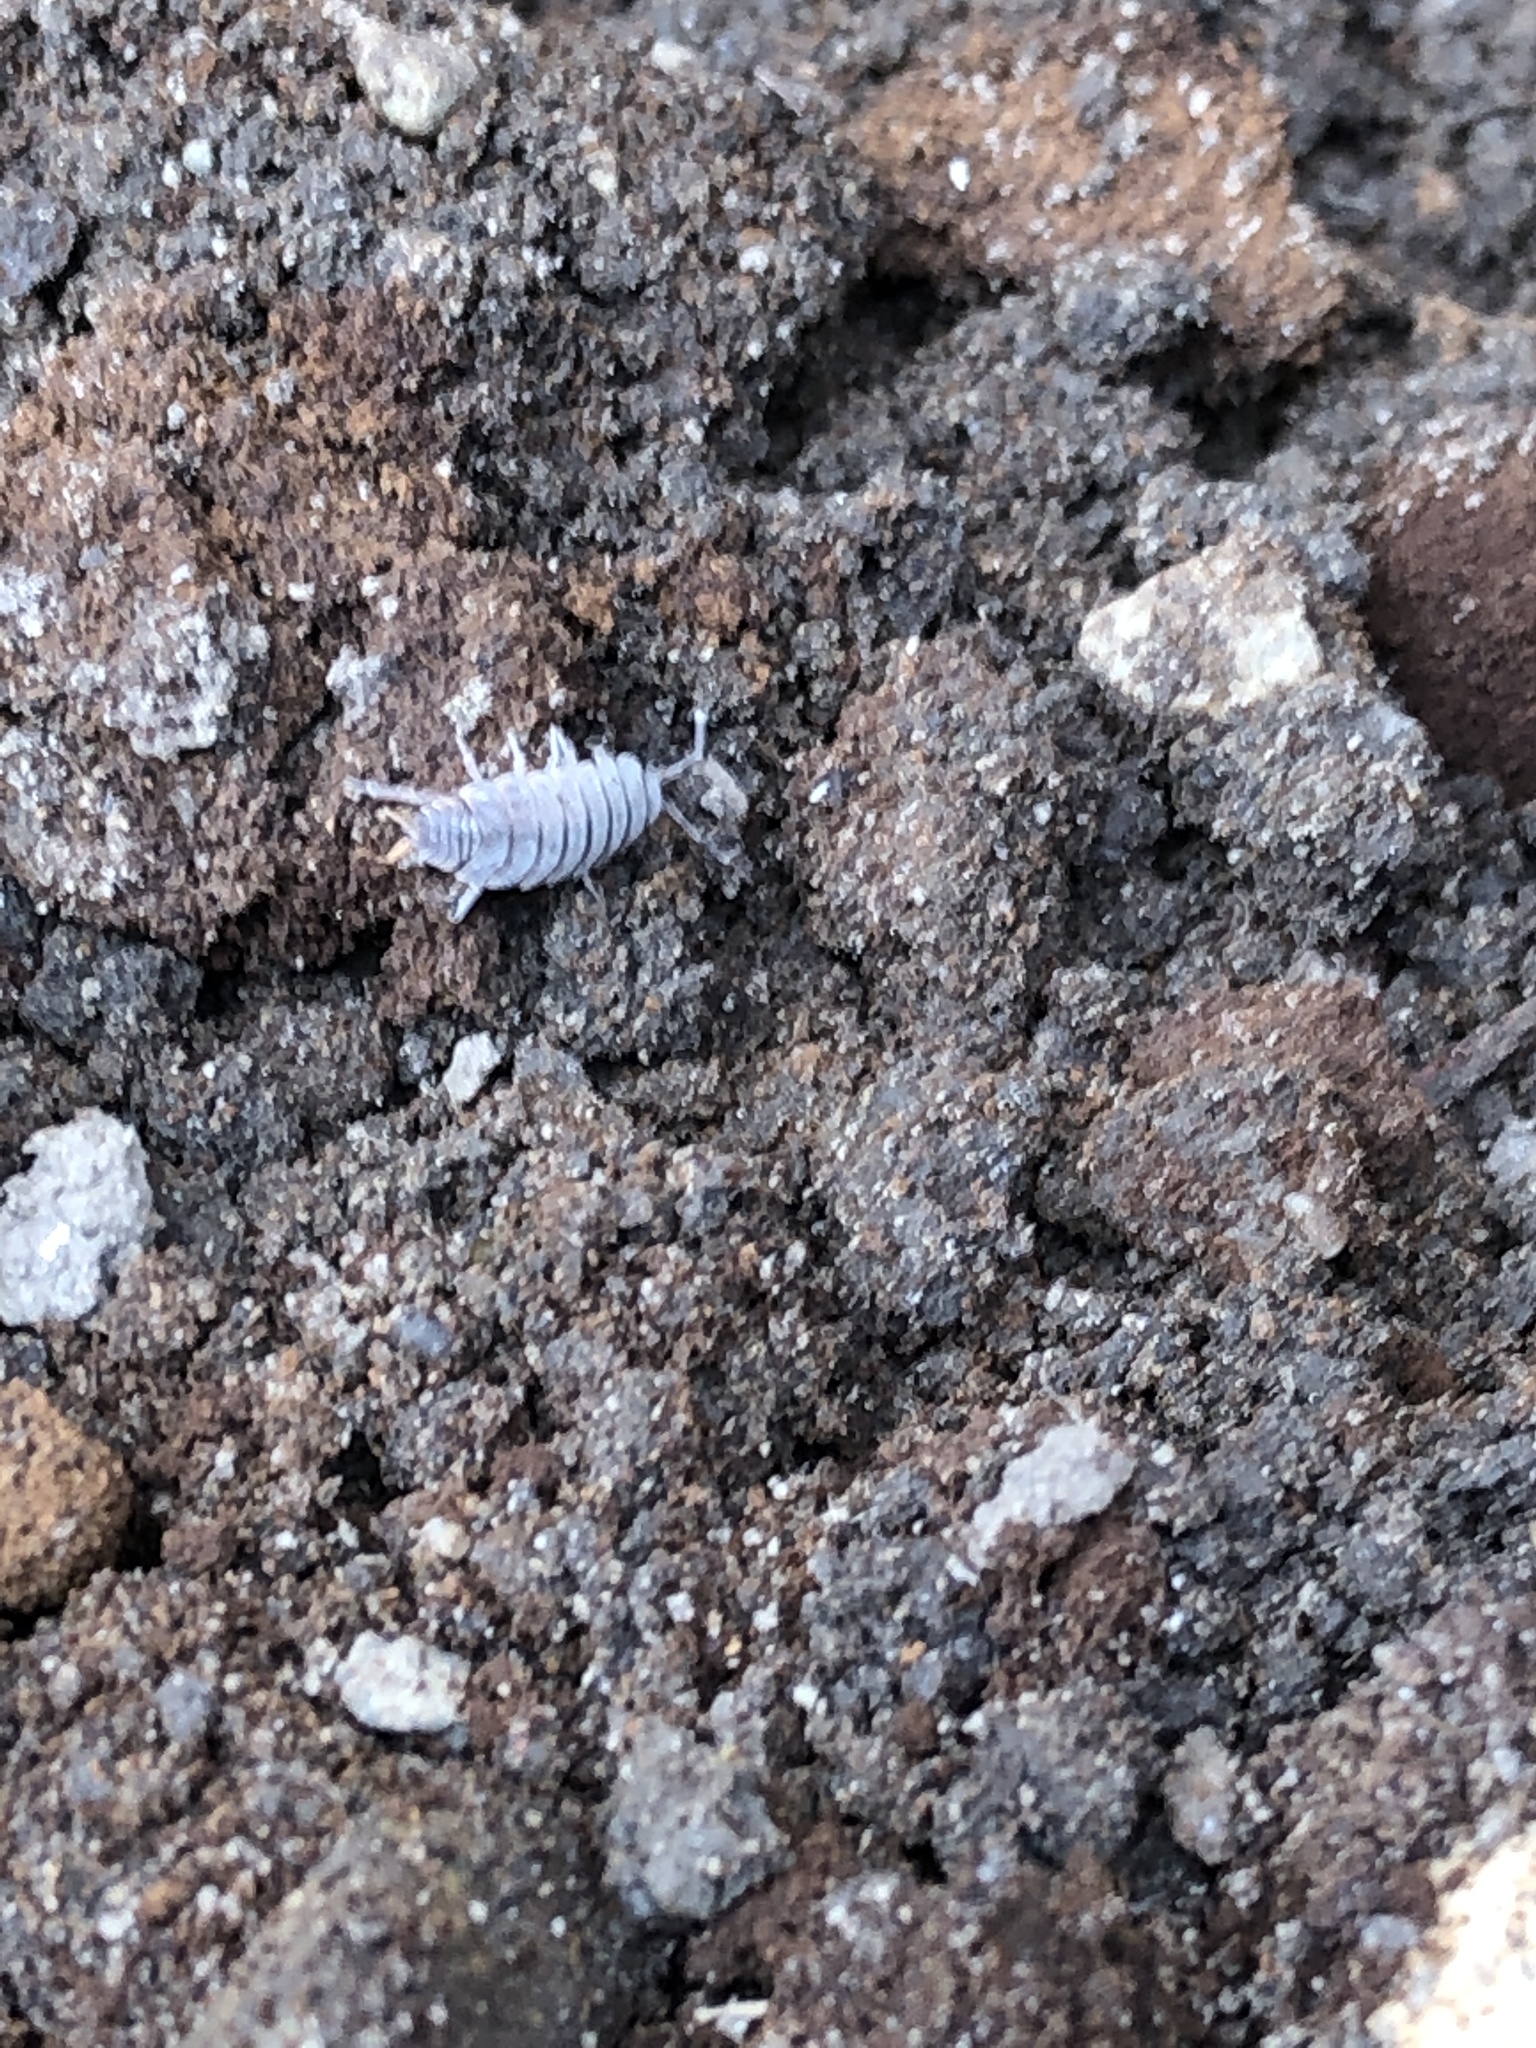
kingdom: Animalia
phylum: Arthropoda
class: Malacostraca
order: Isopoda
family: Porcellionidae
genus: Porcellionides
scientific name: Porcellionides pruinosus
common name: Plum woodlouse
